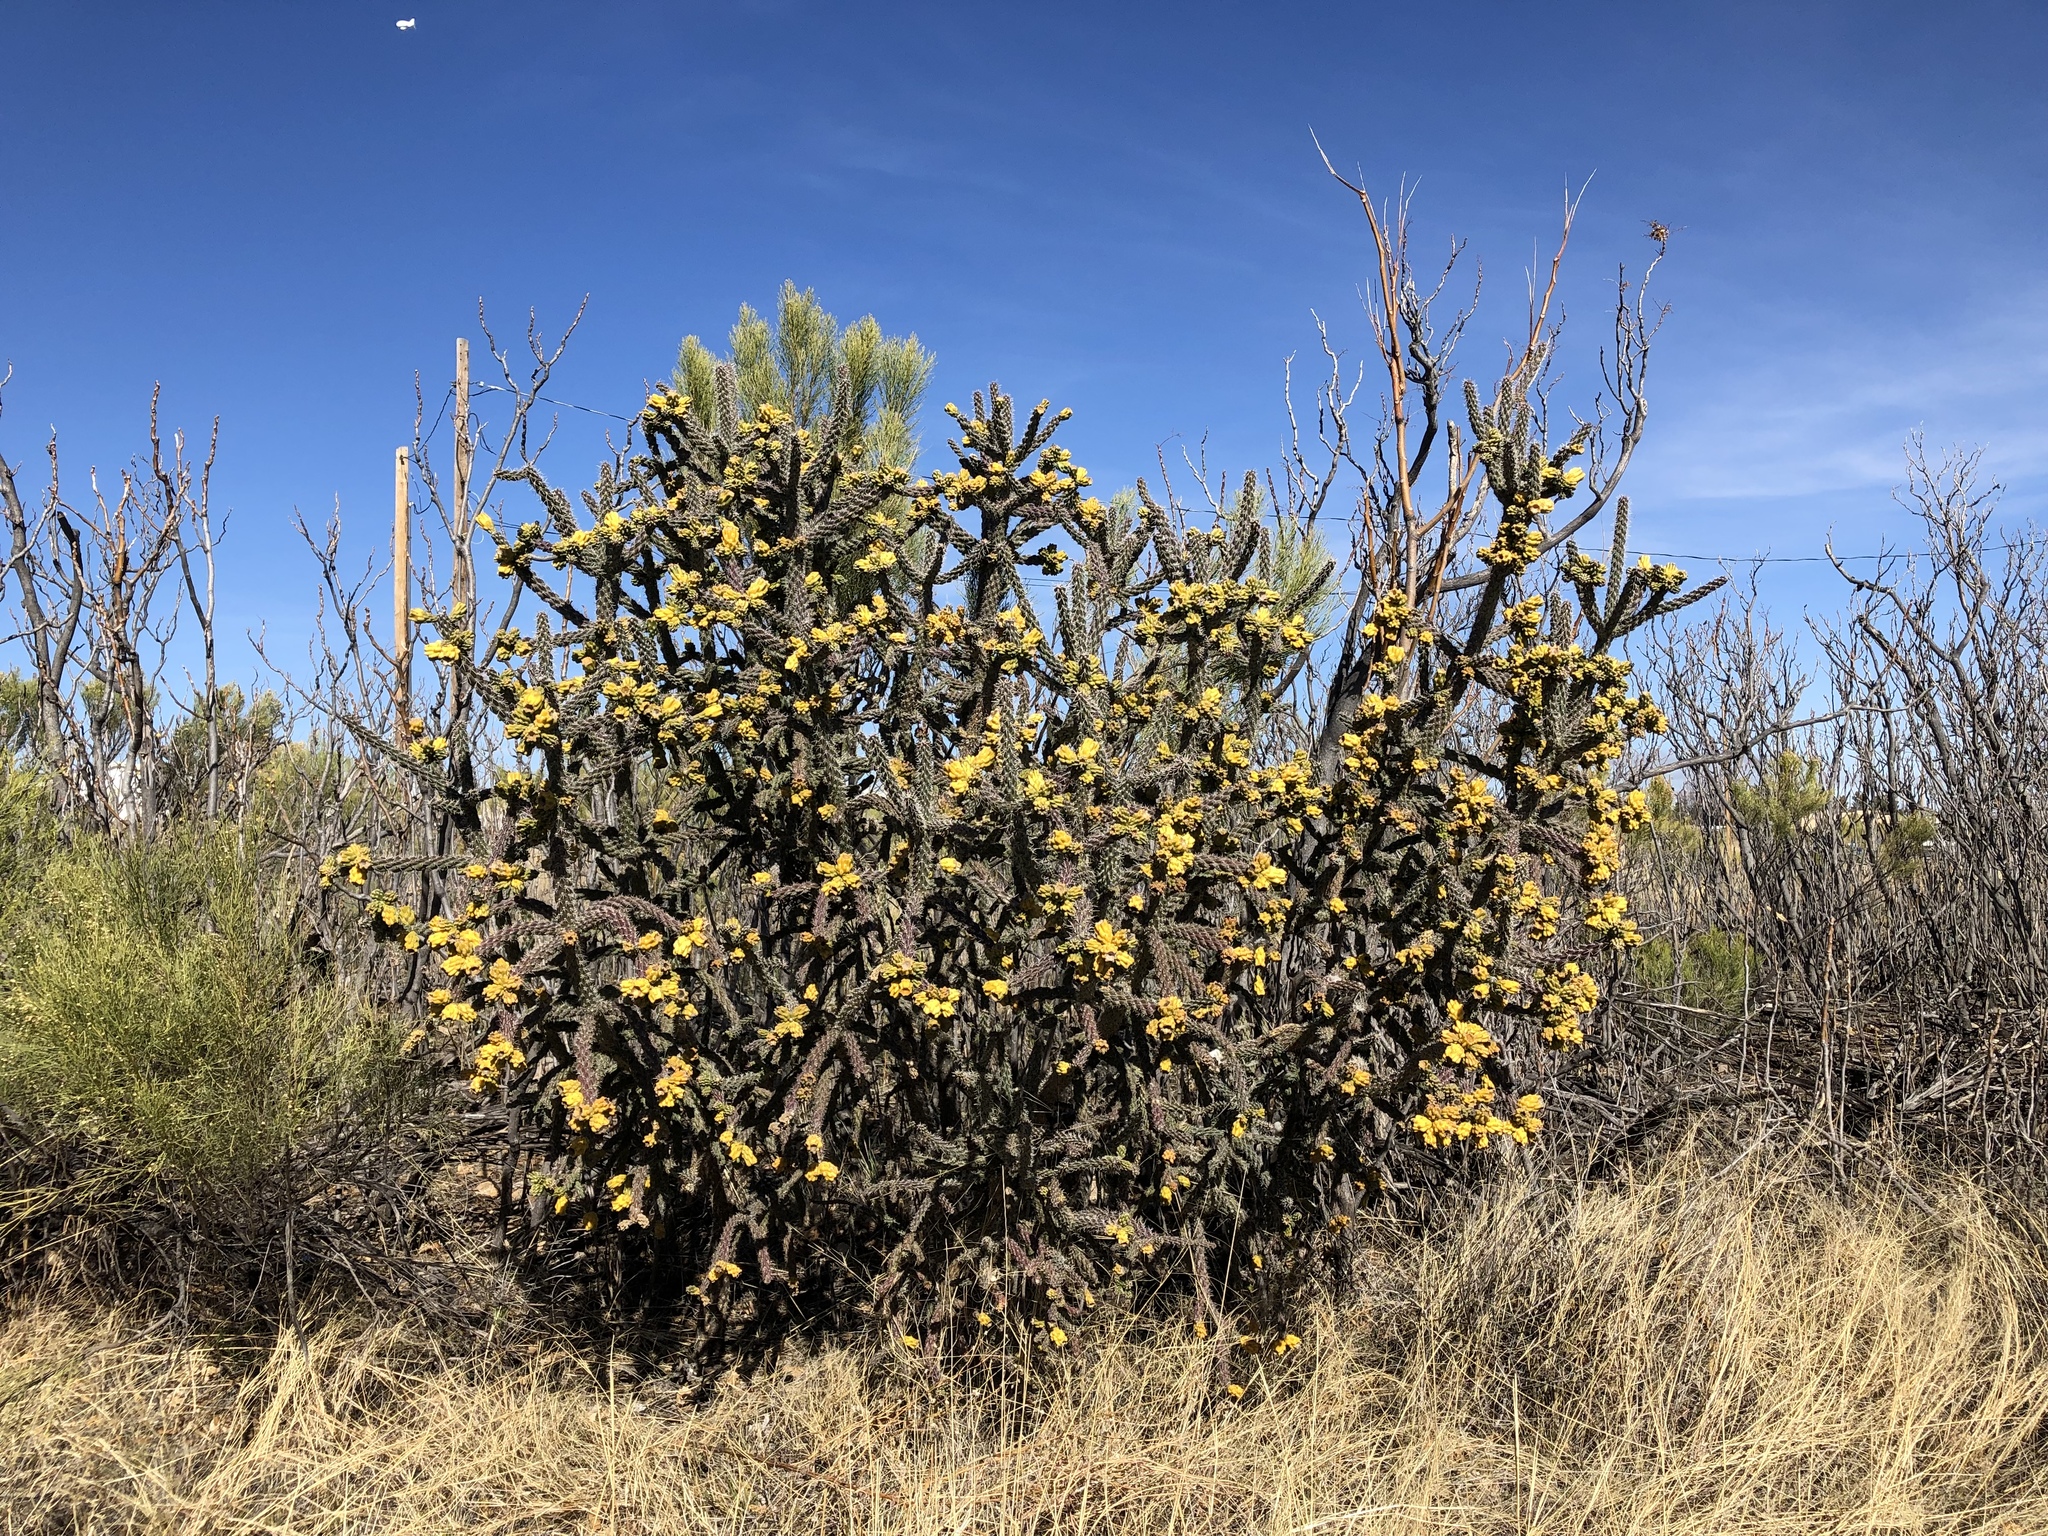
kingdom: Plantae
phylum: Tracheophyta
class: Magnoliopsida
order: Caryophyllales
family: Cactaceae
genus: Cylindropuntia
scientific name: Cylindropuntia imbricata
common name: Candelabrum cactus
